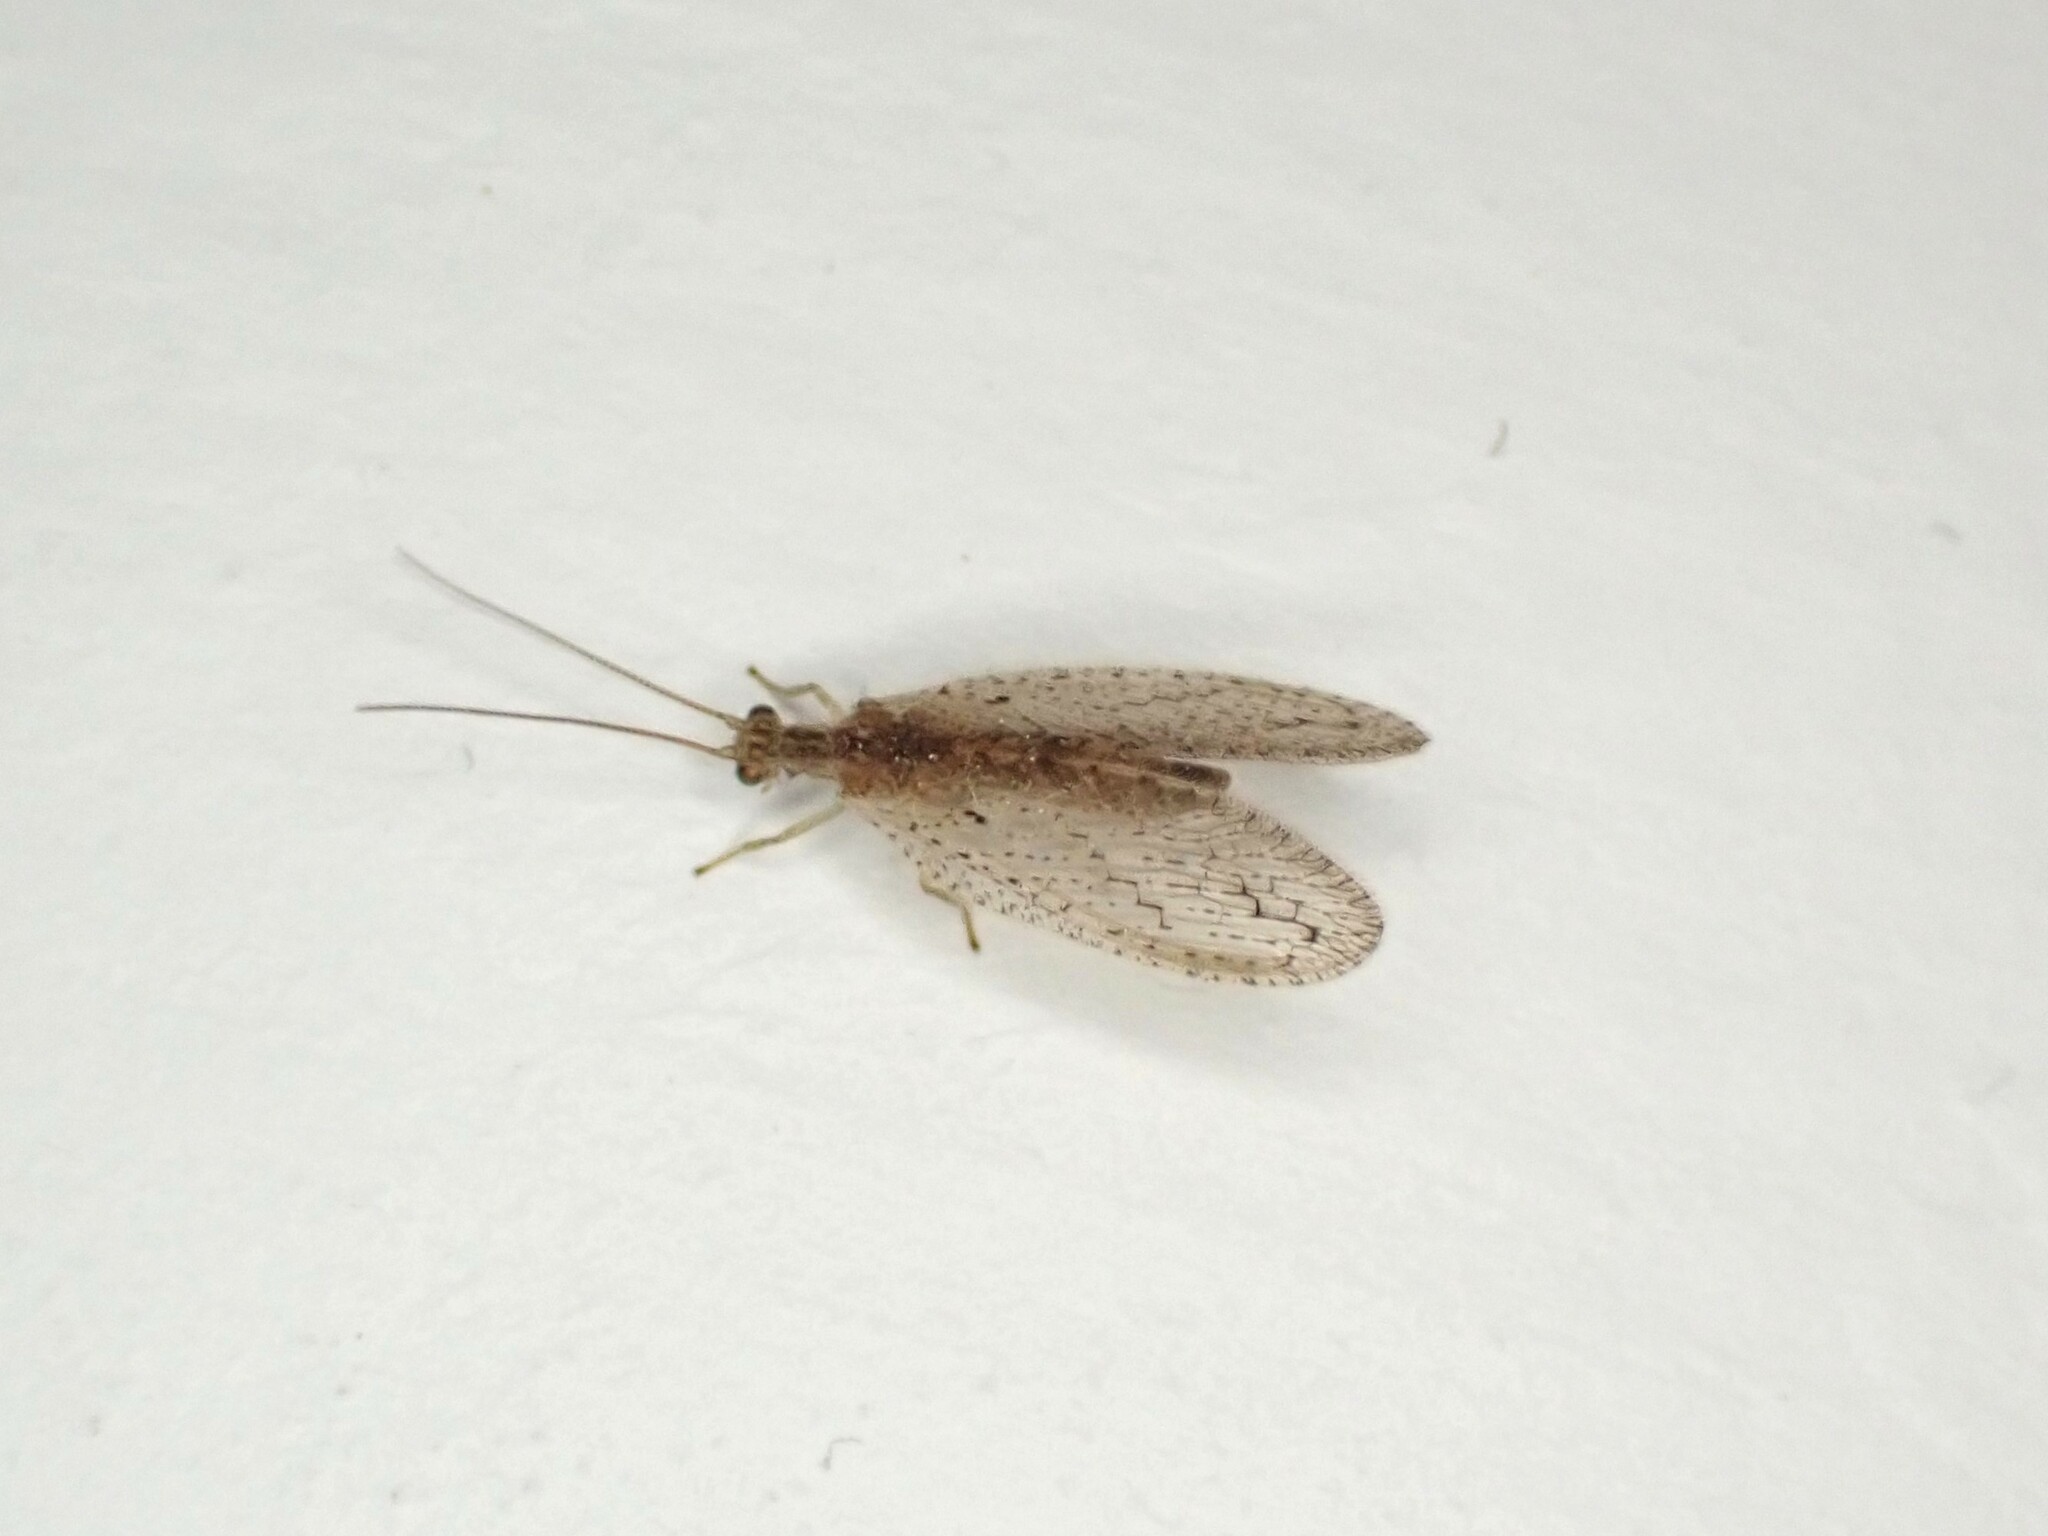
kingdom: Animalia
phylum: Arthropoda
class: Insecta
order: Neuroptera
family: Hemerobiidae
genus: Micromus
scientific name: Micromus tasmaniae
